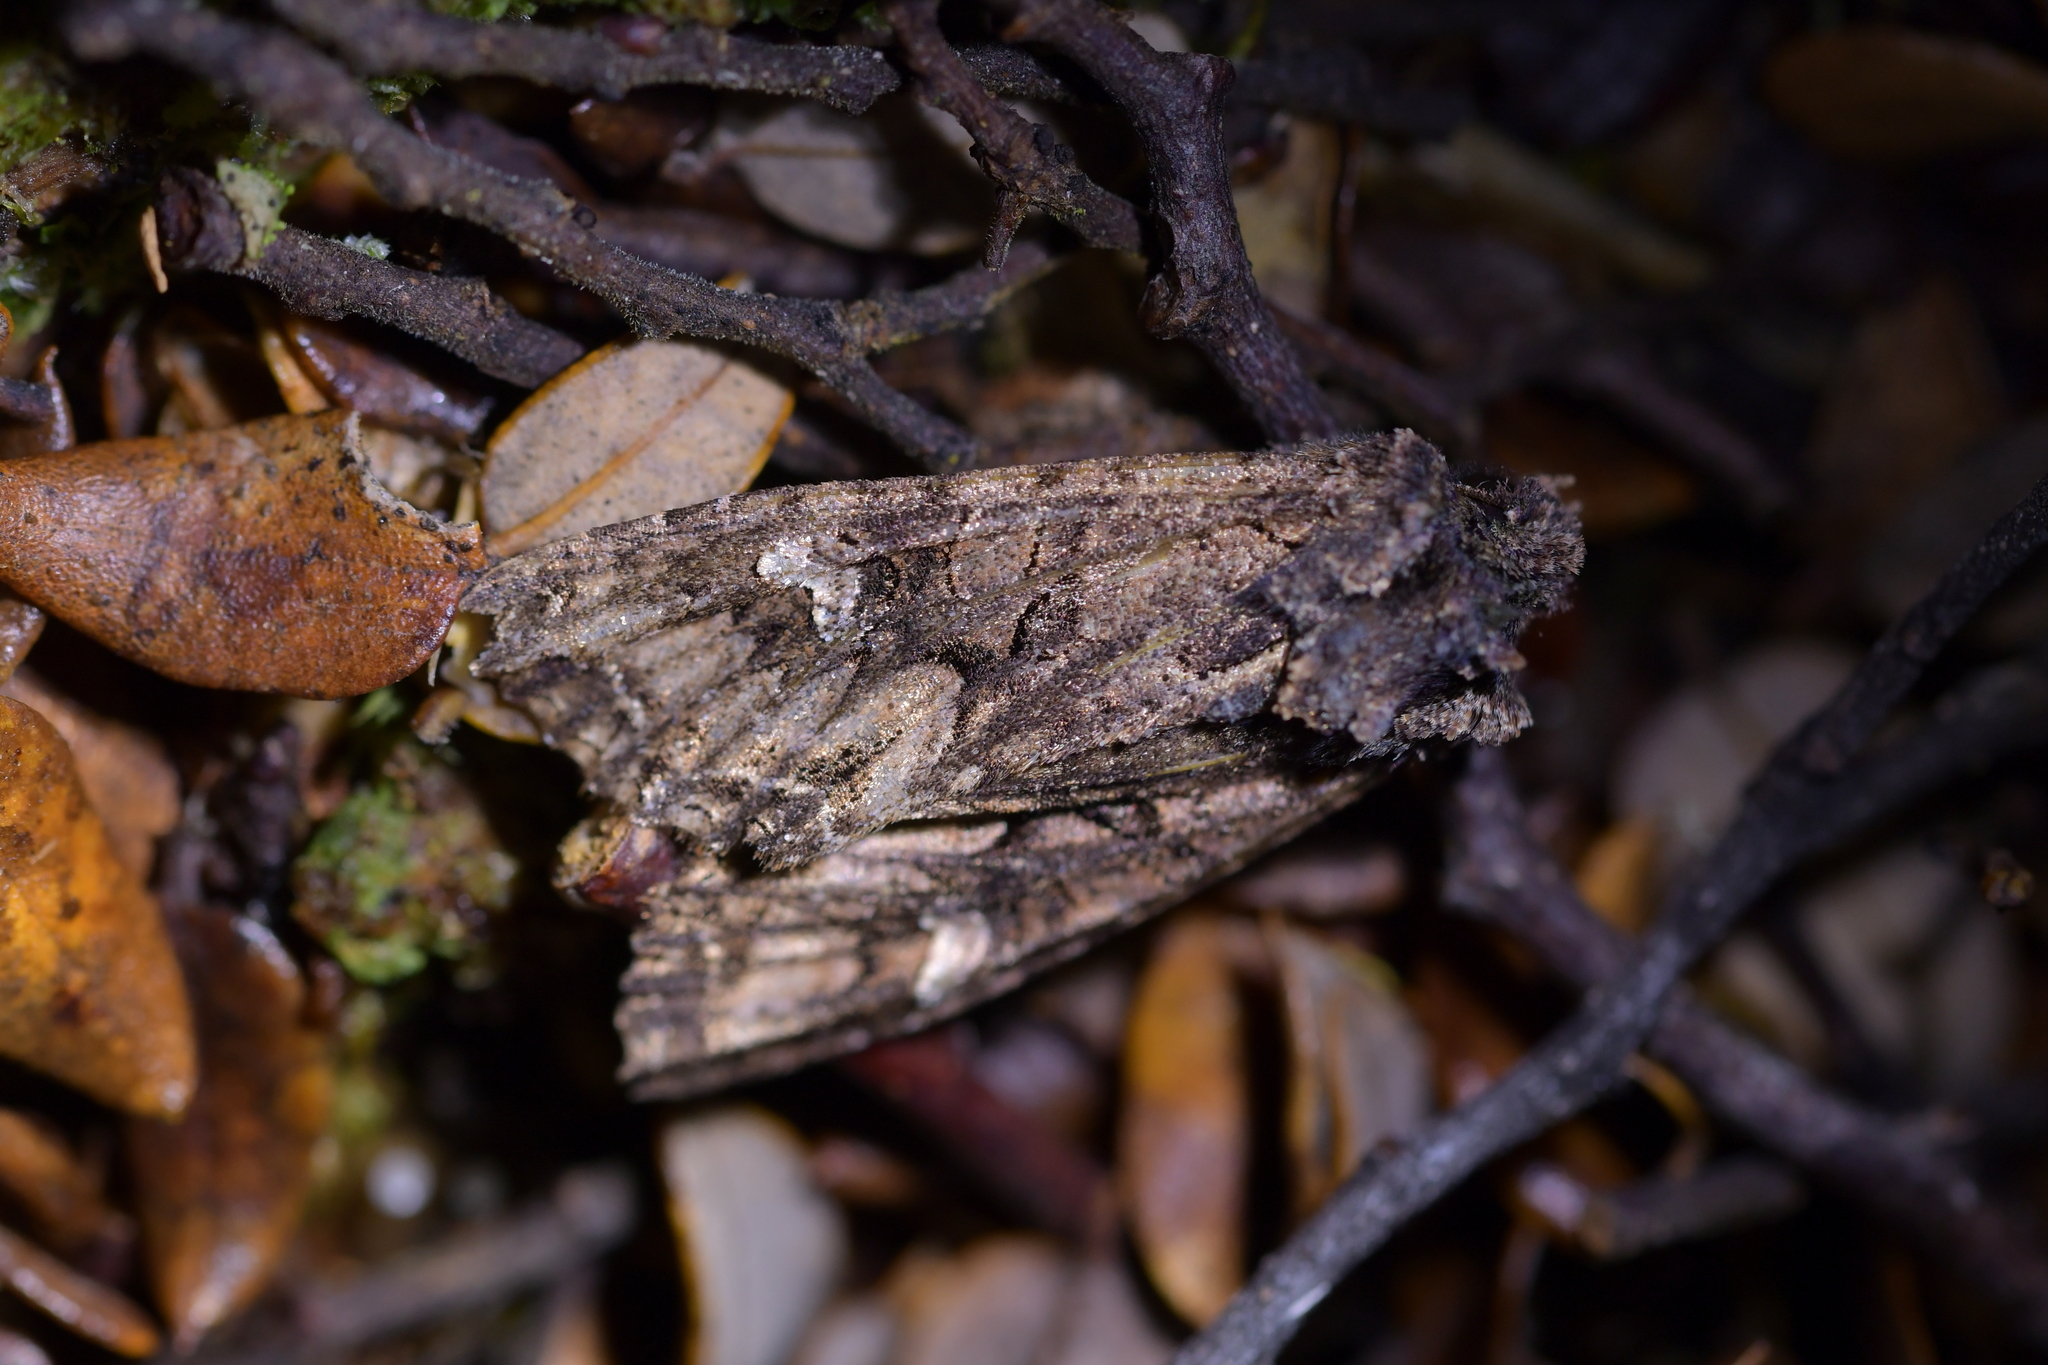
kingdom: Animalia
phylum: Arthropoda
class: Insecta
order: Lepidoptera
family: Noctuidae
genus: Meterana
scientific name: Meterana dotata
